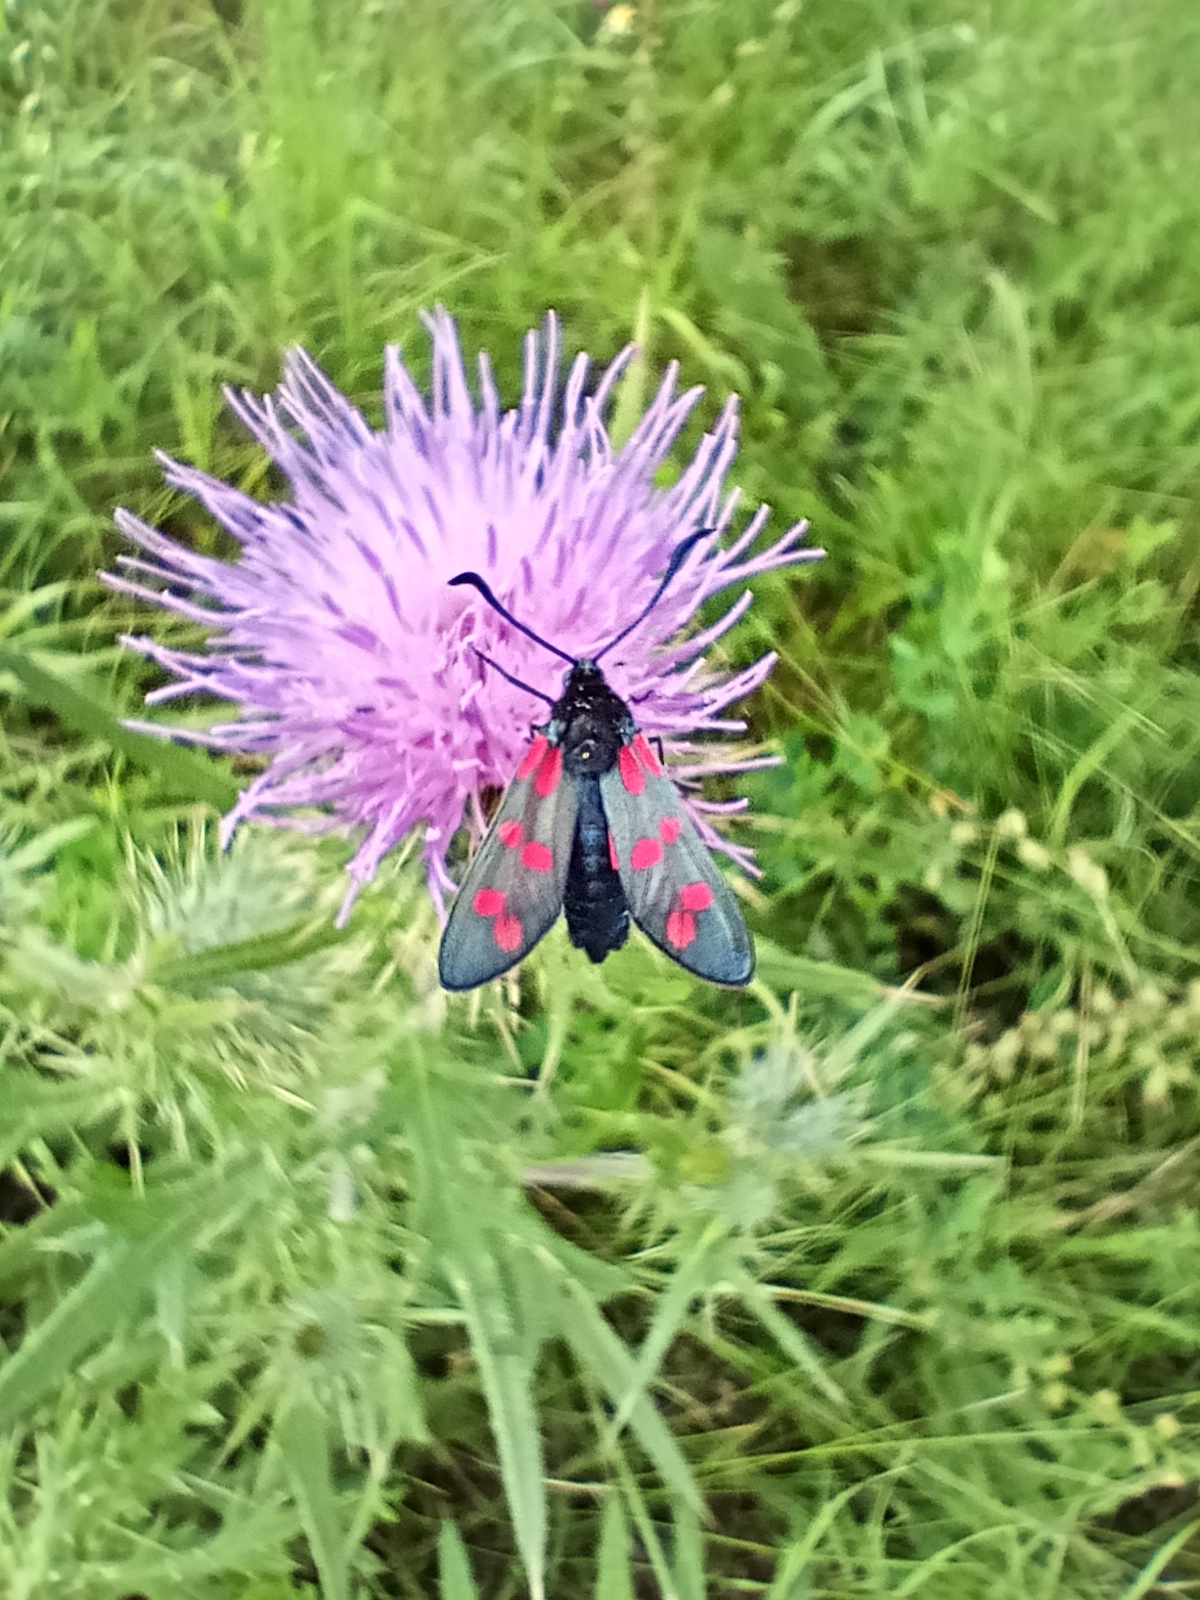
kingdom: Animalia
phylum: Arthropoda
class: Insecta
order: Lepidoptera
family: Zygaenidae
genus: Zygaena
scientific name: Zygaena filipendulae
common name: Six-spot burnet
